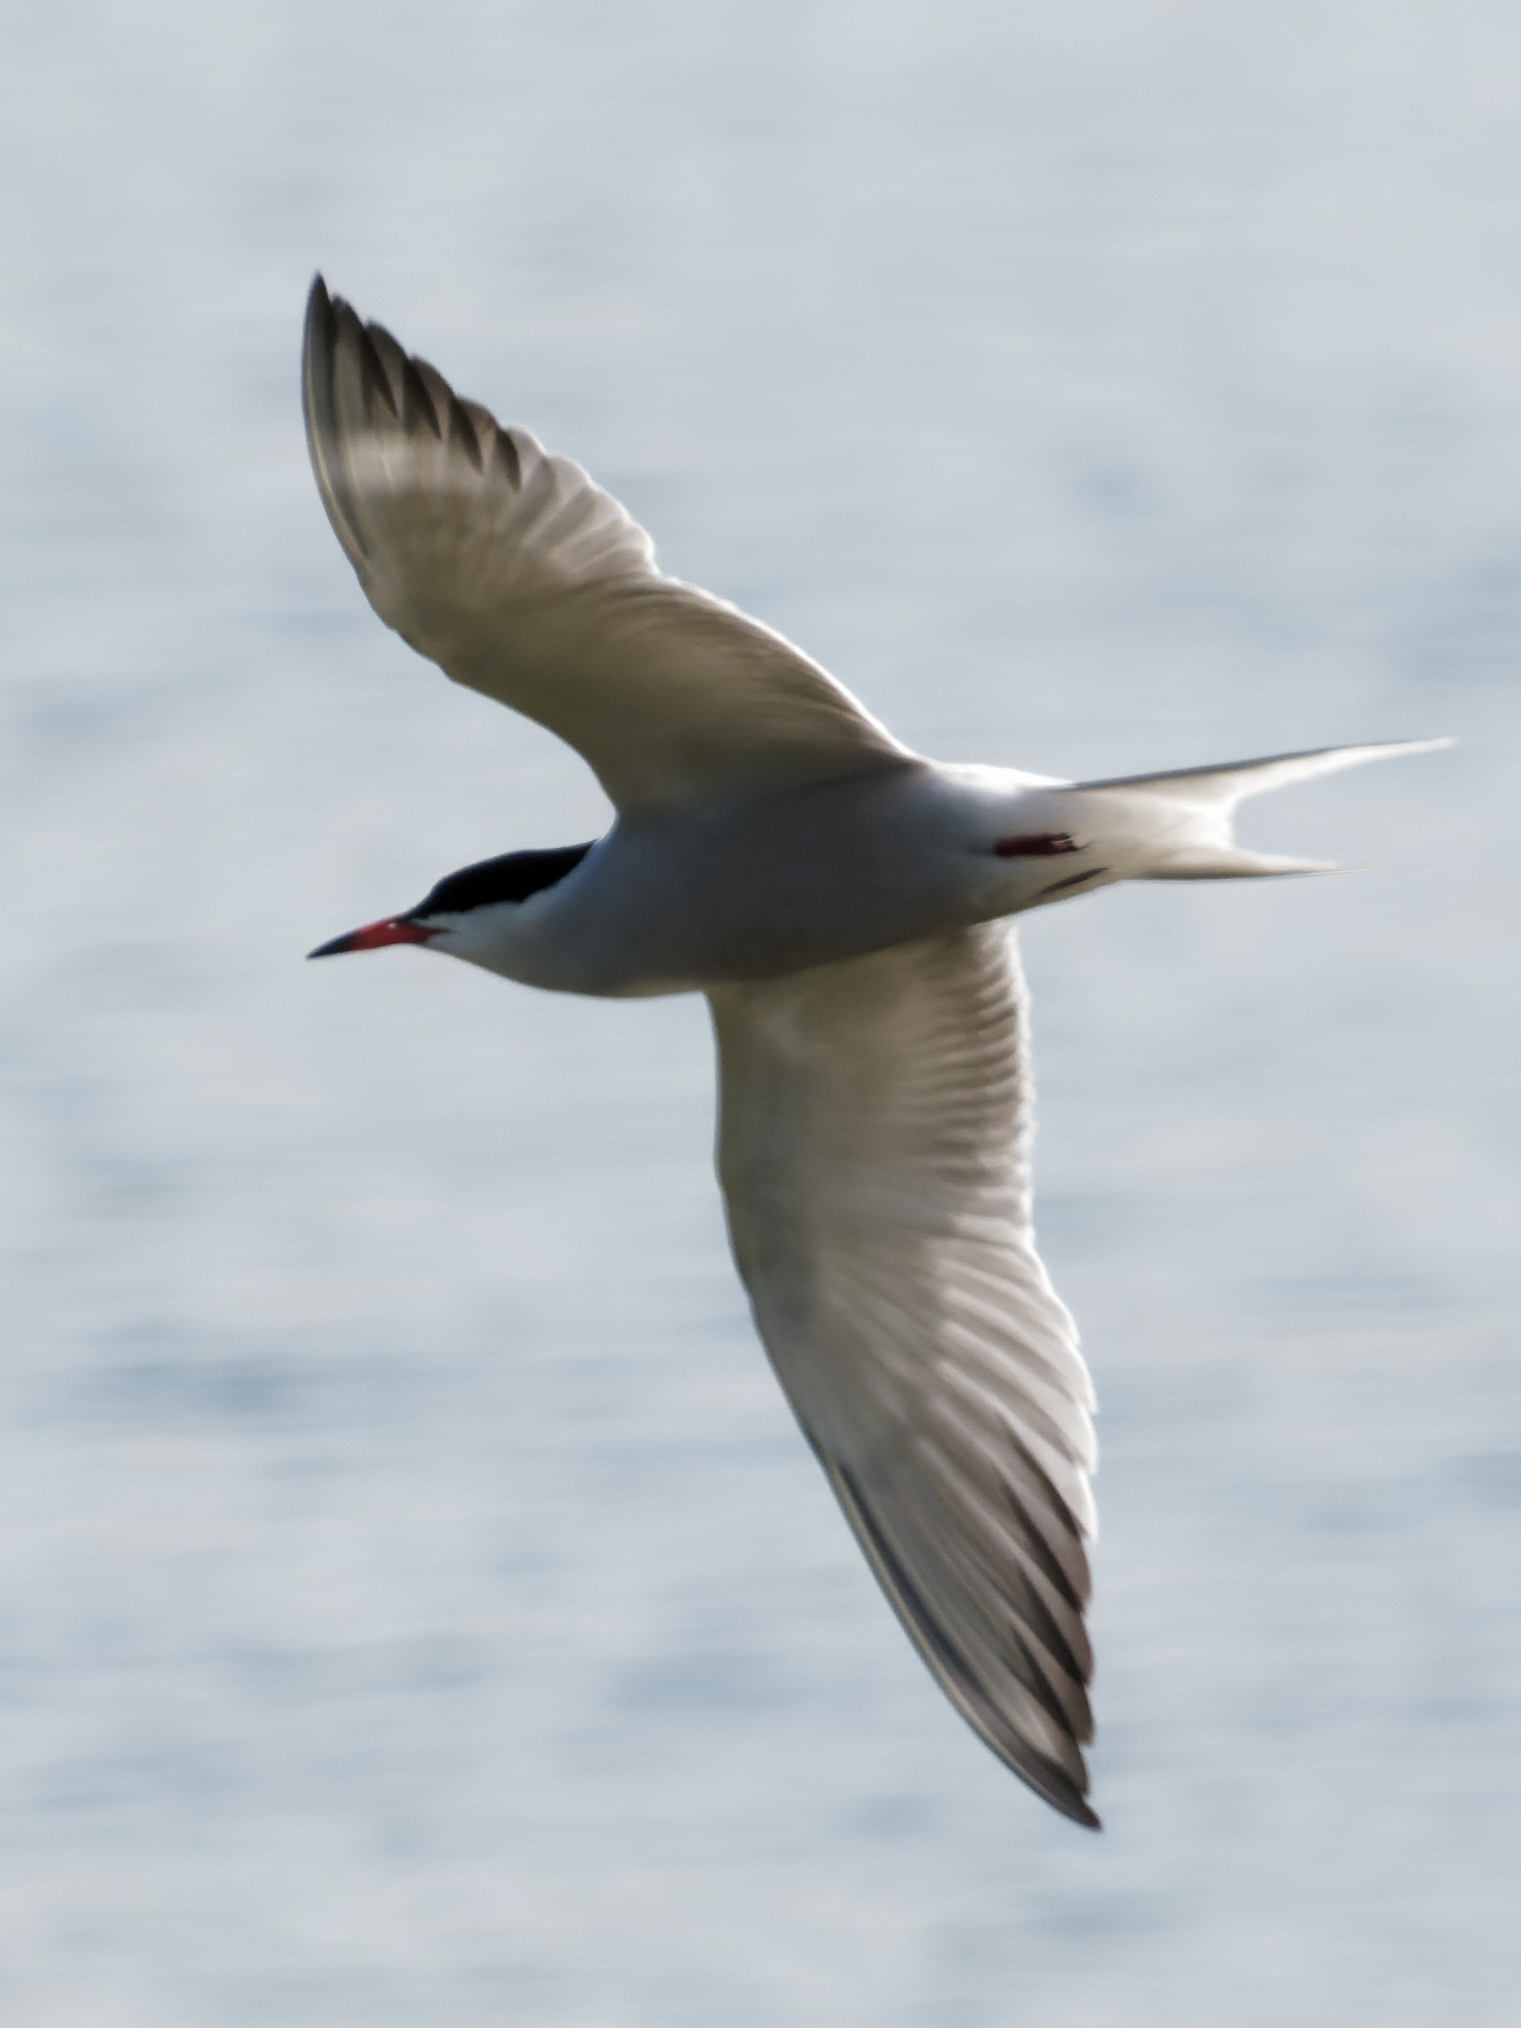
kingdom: Animalia
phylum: Chordata
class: Aves
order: Charadriiformes
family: Laridae
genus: Sterna
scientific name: Sterna hirundo
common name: Common tern
